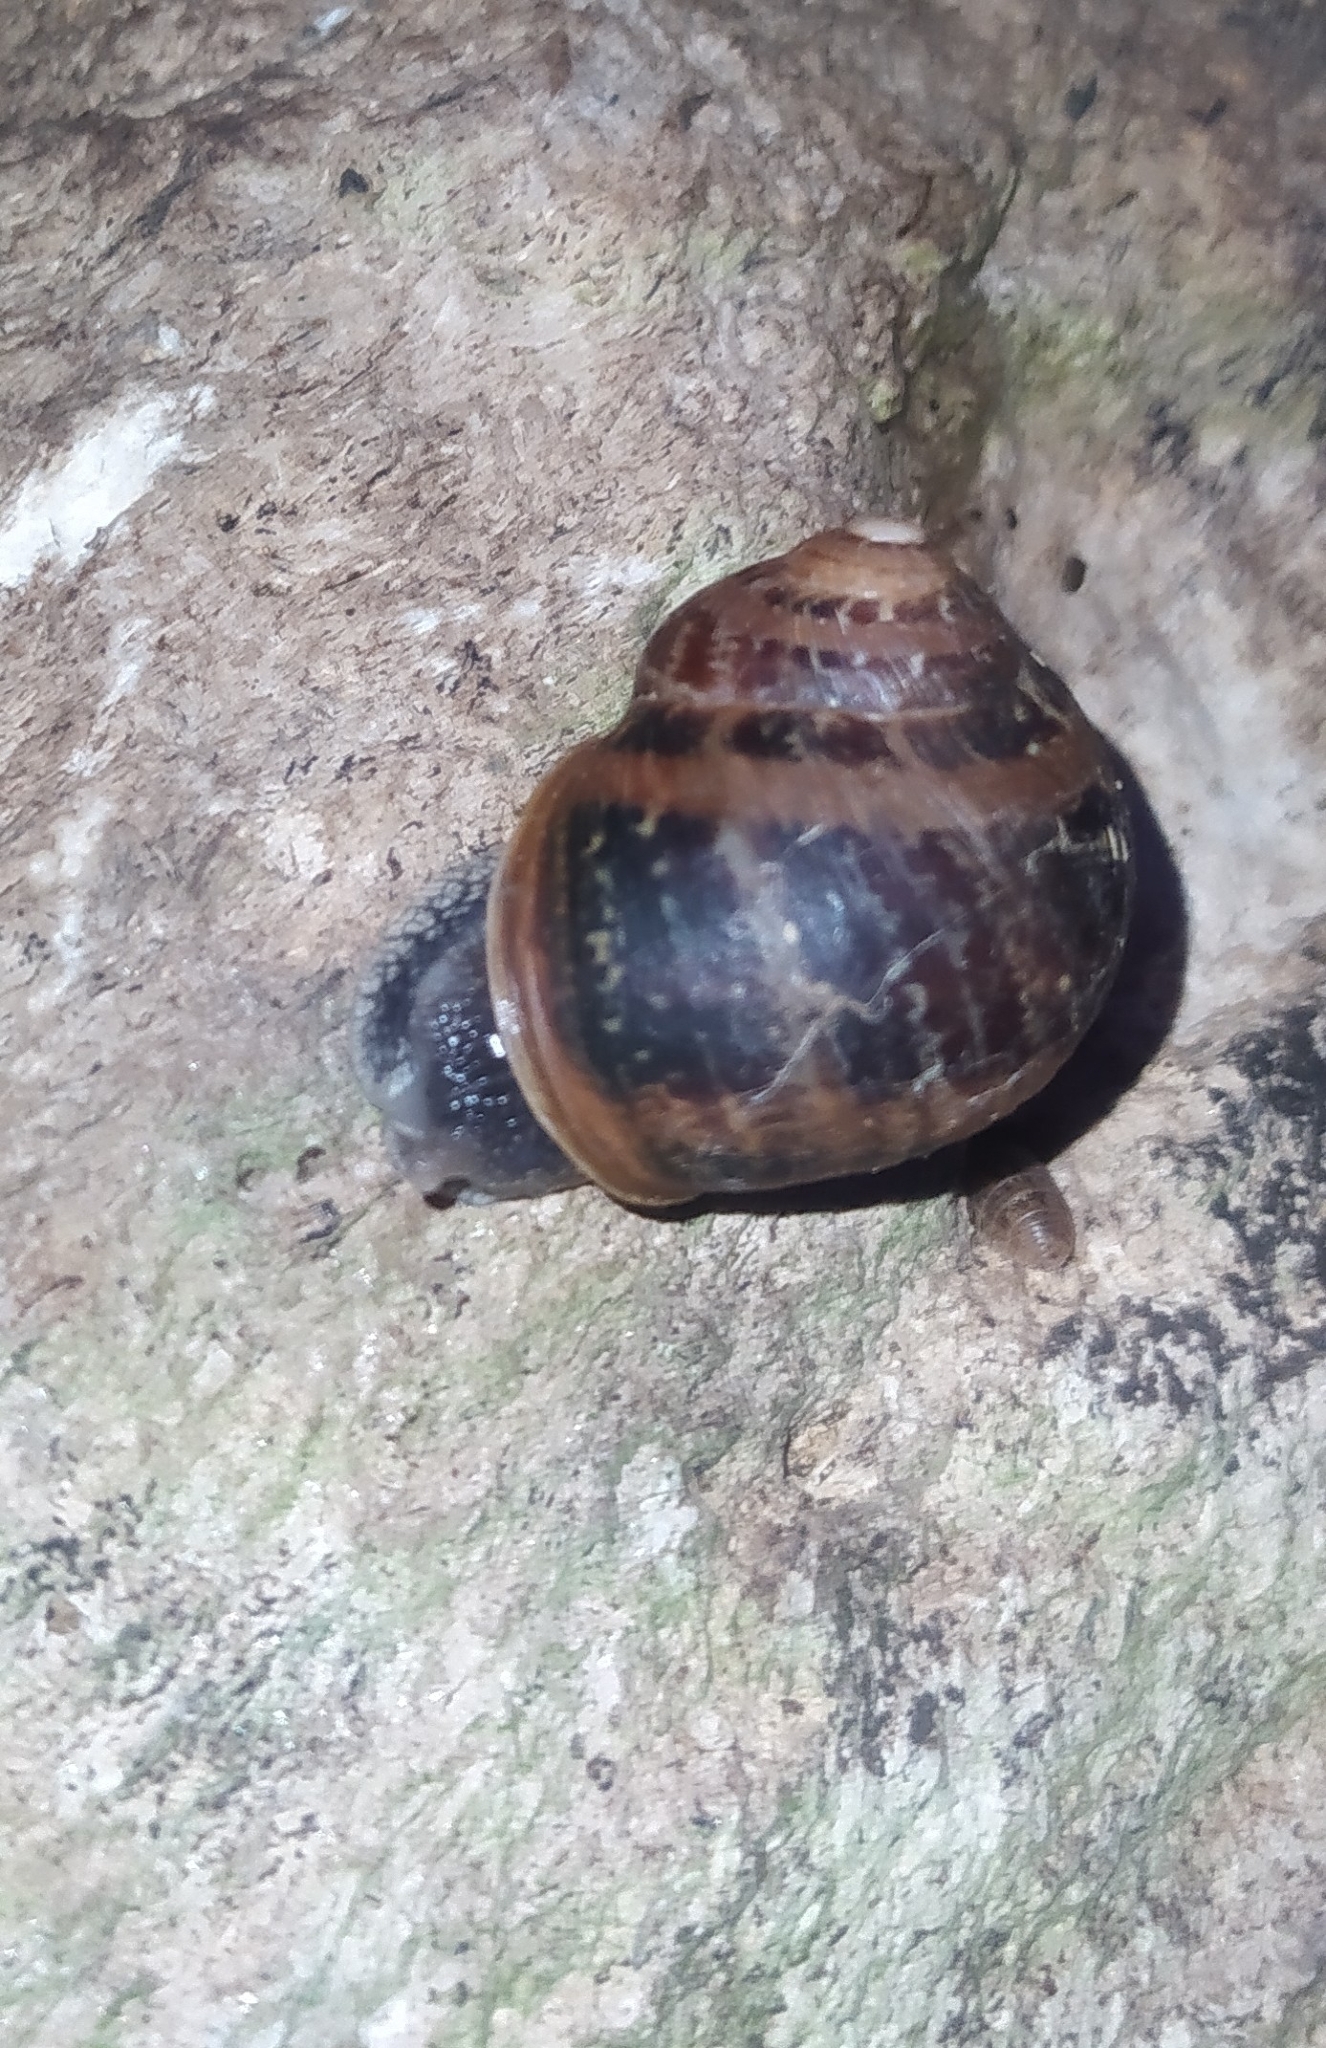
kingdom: Animalia
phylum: Mollusca
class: Gastropoda
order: Stylommatophora
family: Helicidae
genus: Cornu
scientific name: Cornu aspersum
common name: Brown garden snail
